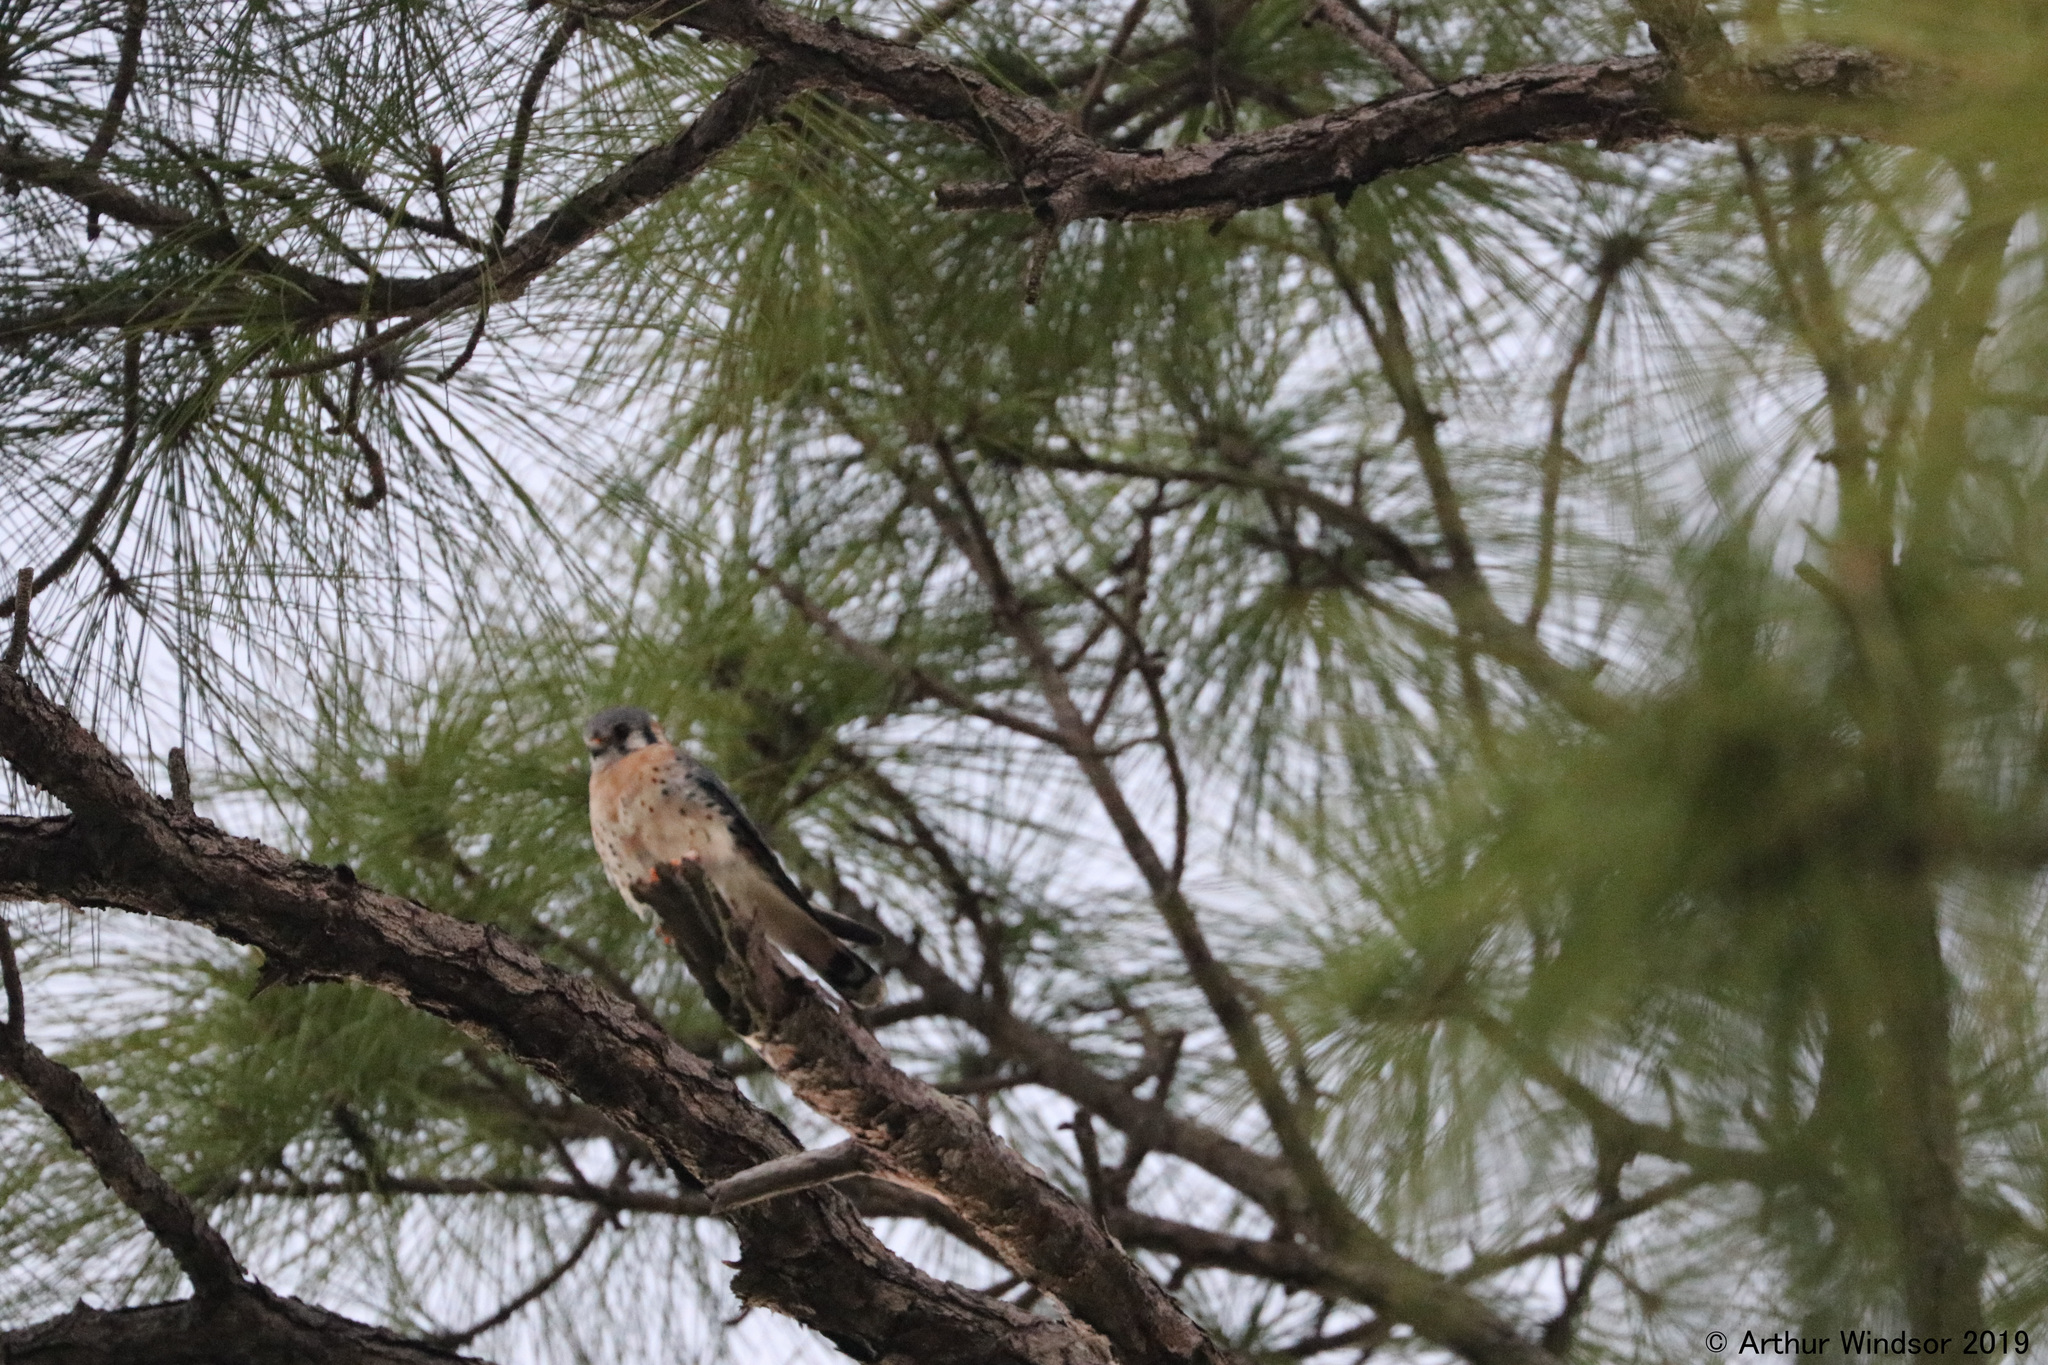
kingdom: Animalia
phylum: Chordata
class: Aves
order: Falconiformes
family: Falconidae
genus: Falco
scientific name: Falco sparverius
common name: American kestrel
